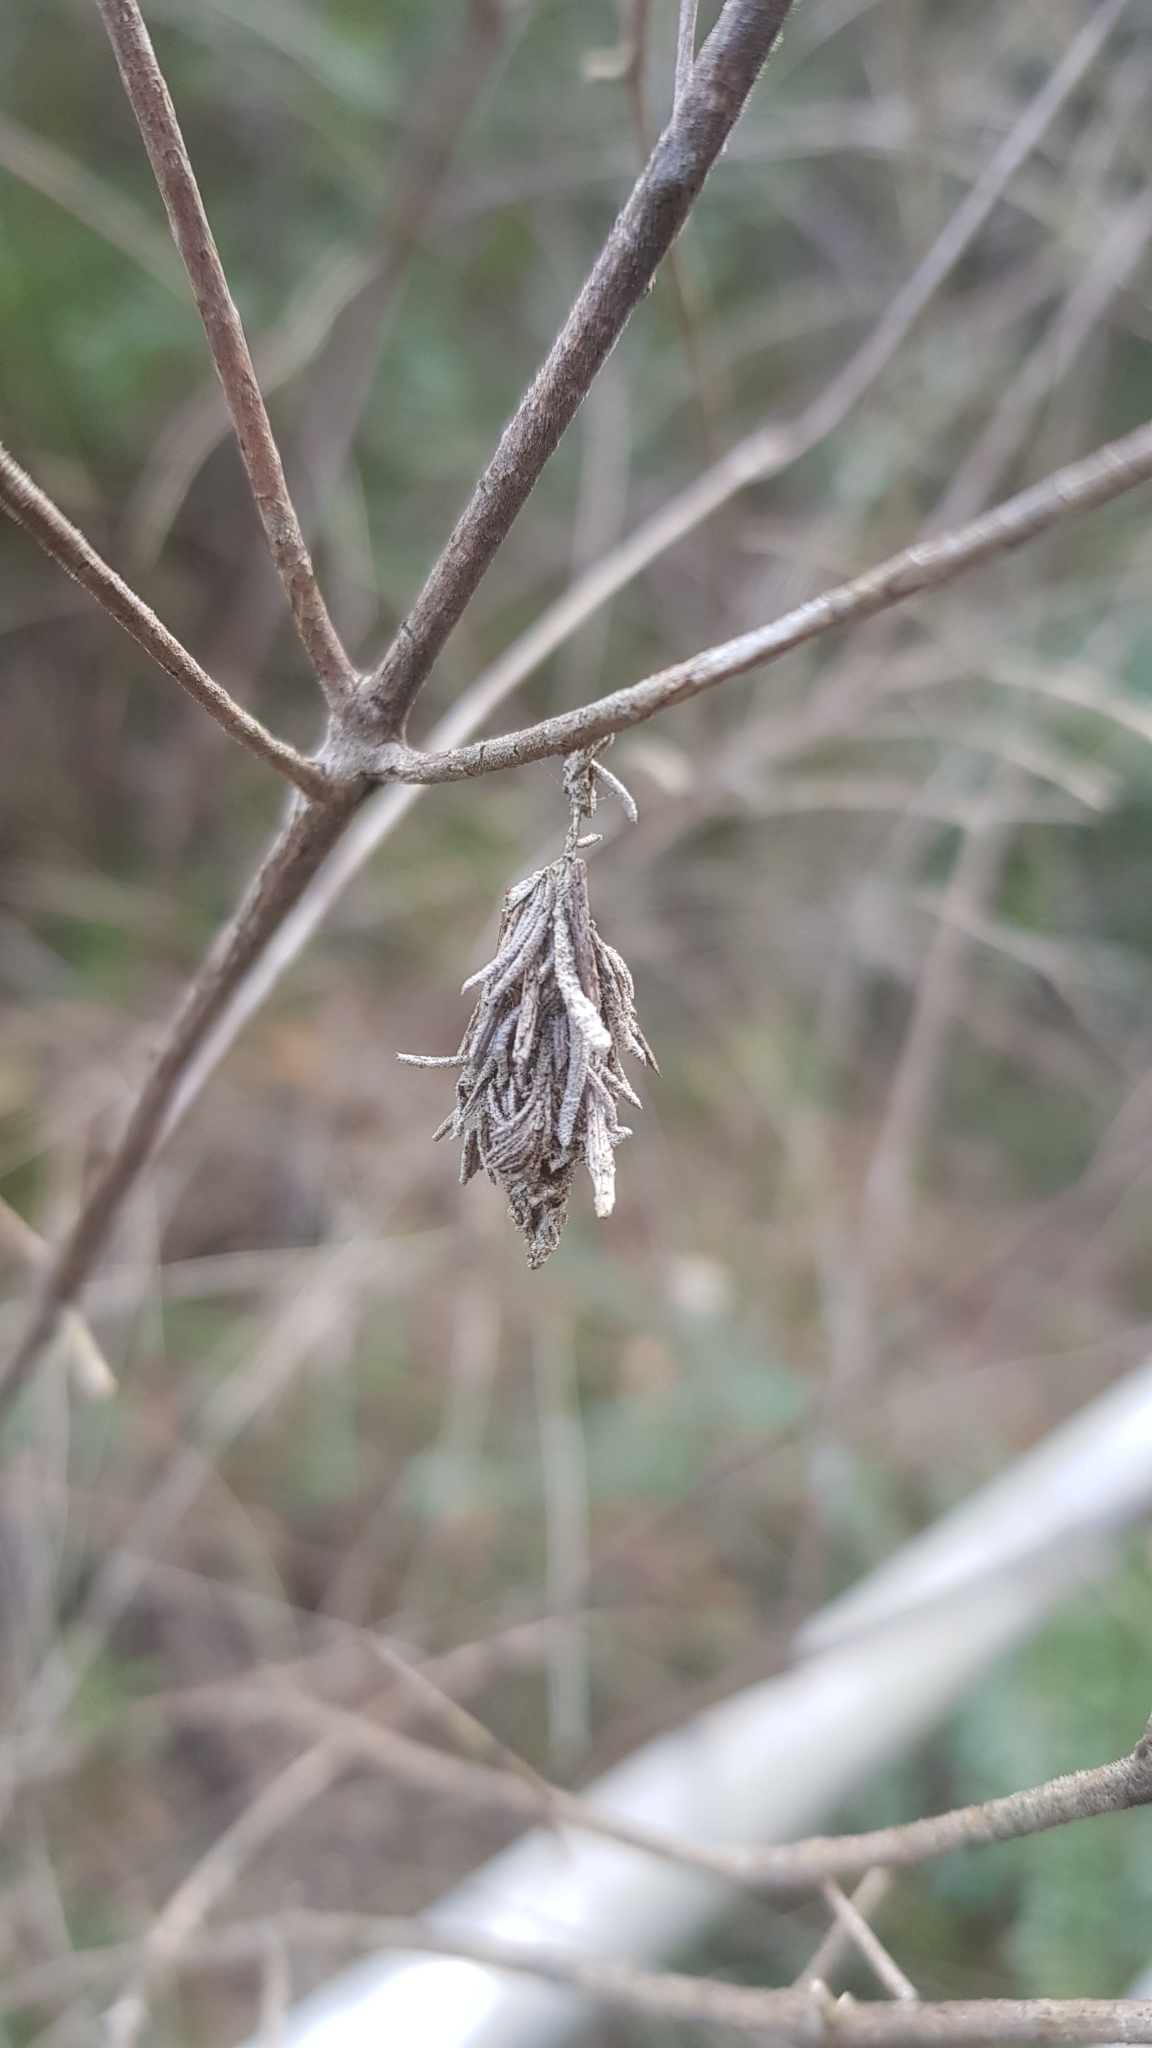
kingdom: Animalia
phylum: Arthropoda
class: Insecta
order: Lepidoptera
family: Psychidae
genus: Hyalarcta
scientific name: Hyalarcta huebneri
